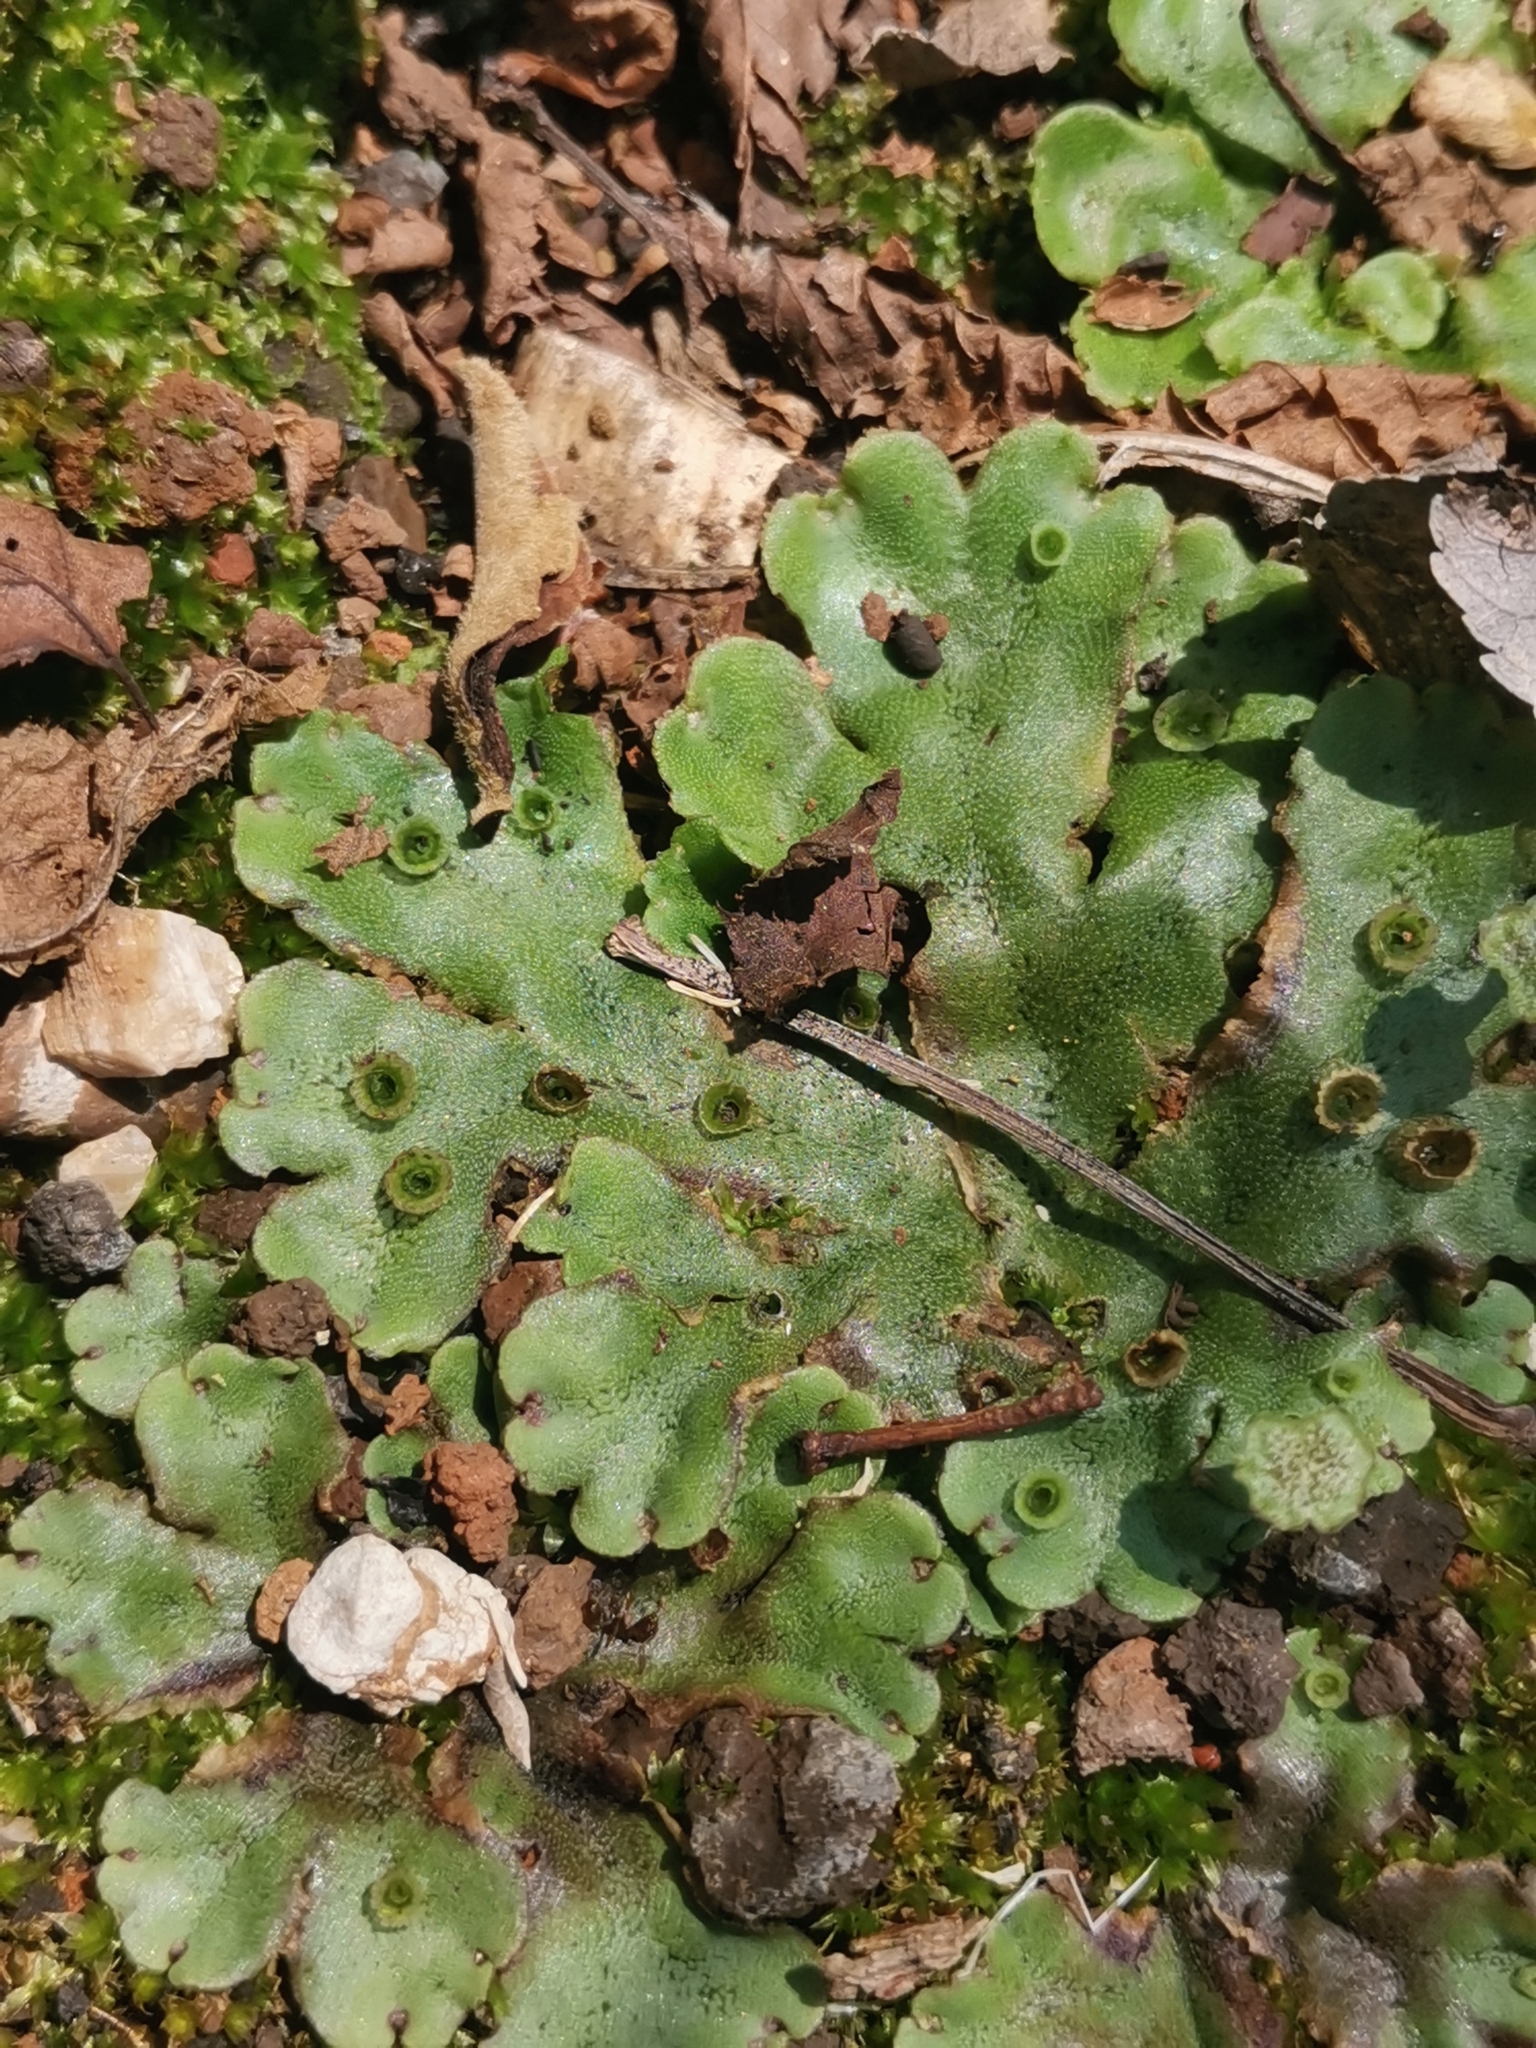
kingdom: Plantae
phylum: Marchantiophyta
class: Marchantiopsida
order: Marchantiales
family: Marchantiaceae
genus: Marchantia
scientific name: Marchantia polymorpha
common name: Common liverwort
